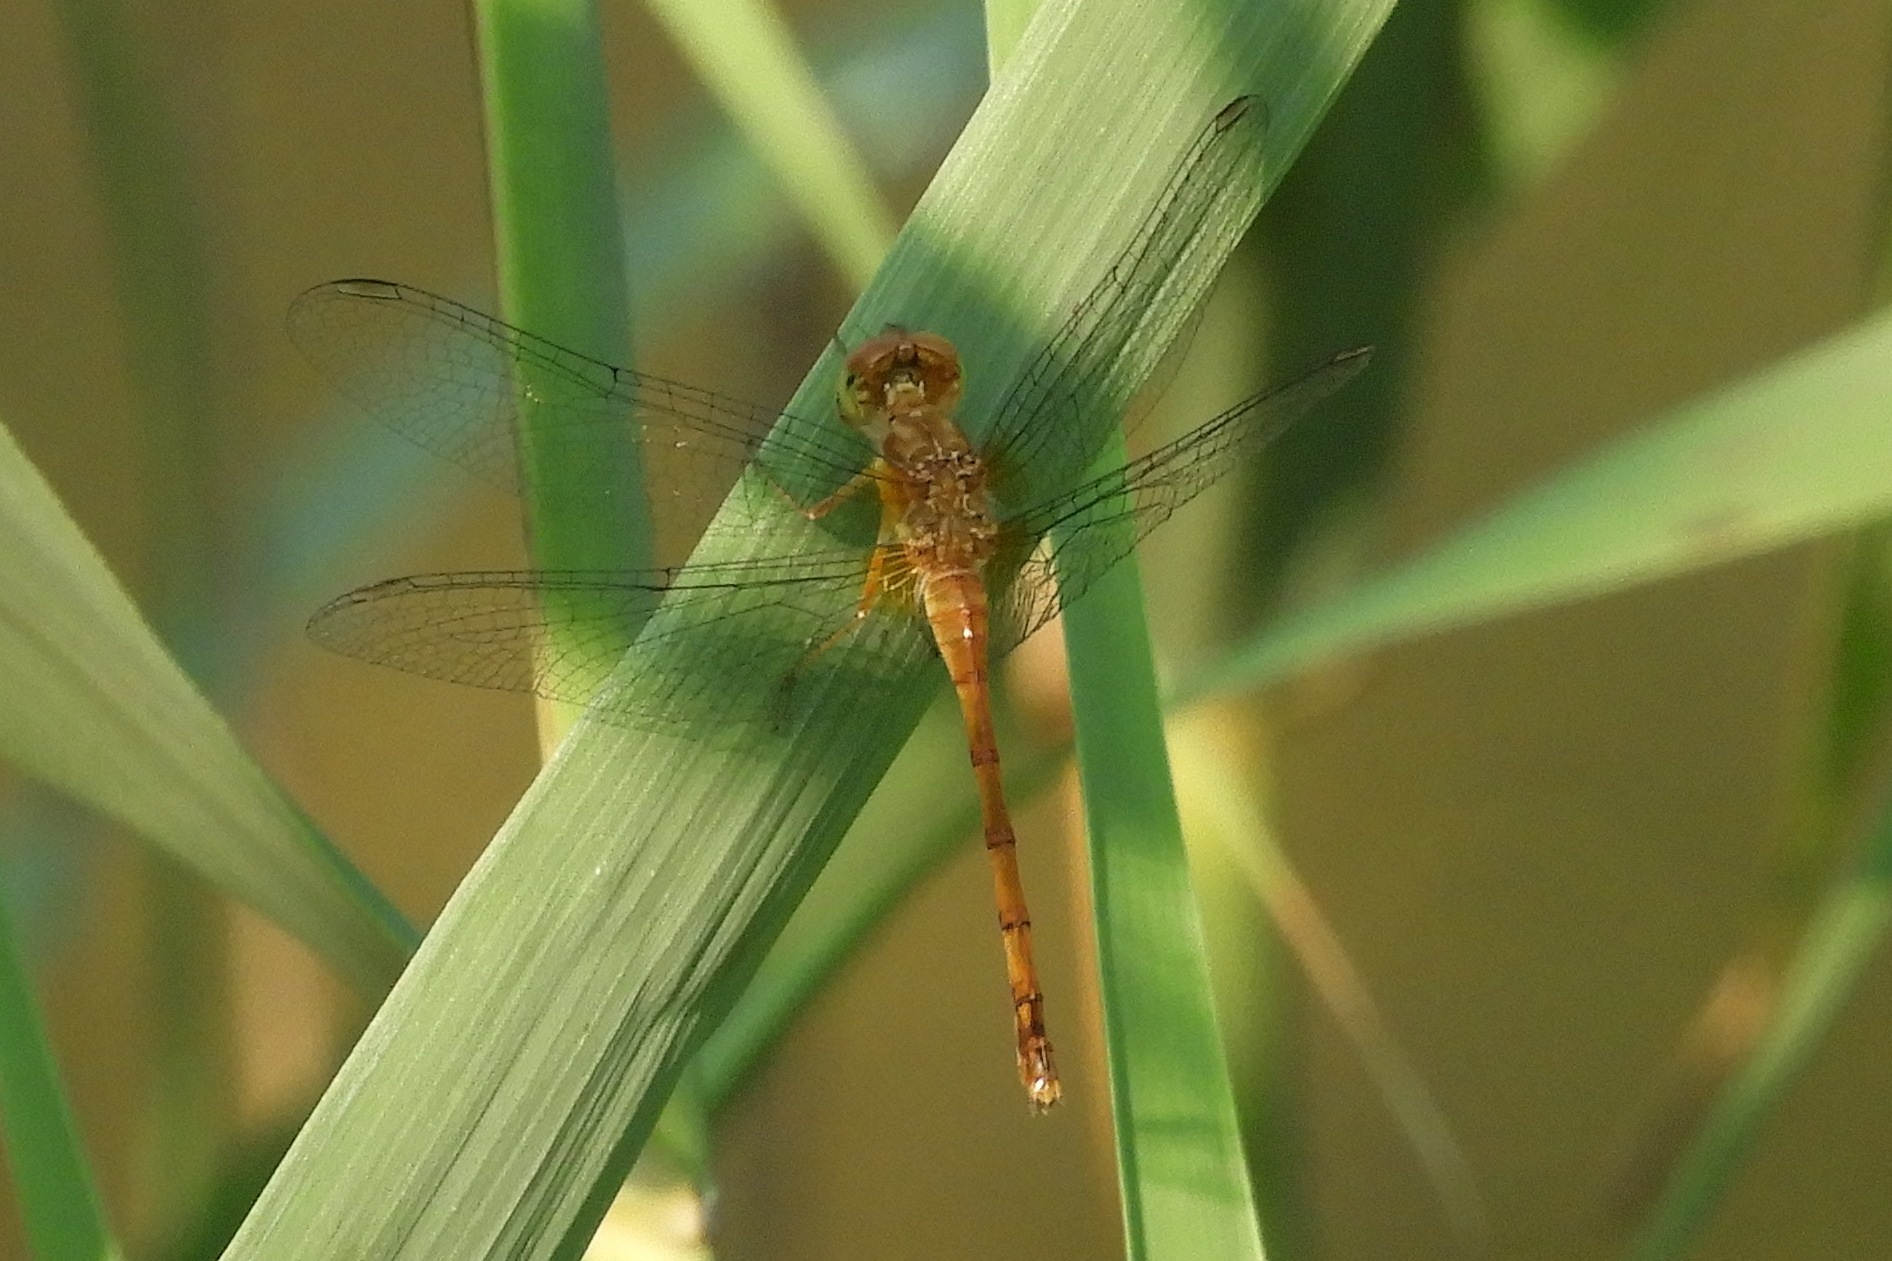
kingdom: Animalia
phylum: Arthropoda
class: Insecta
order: Odonata
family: Libellulidae
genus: Sympetrum
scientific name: Sympetrum vicinum
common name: Autumn meadowhawk
